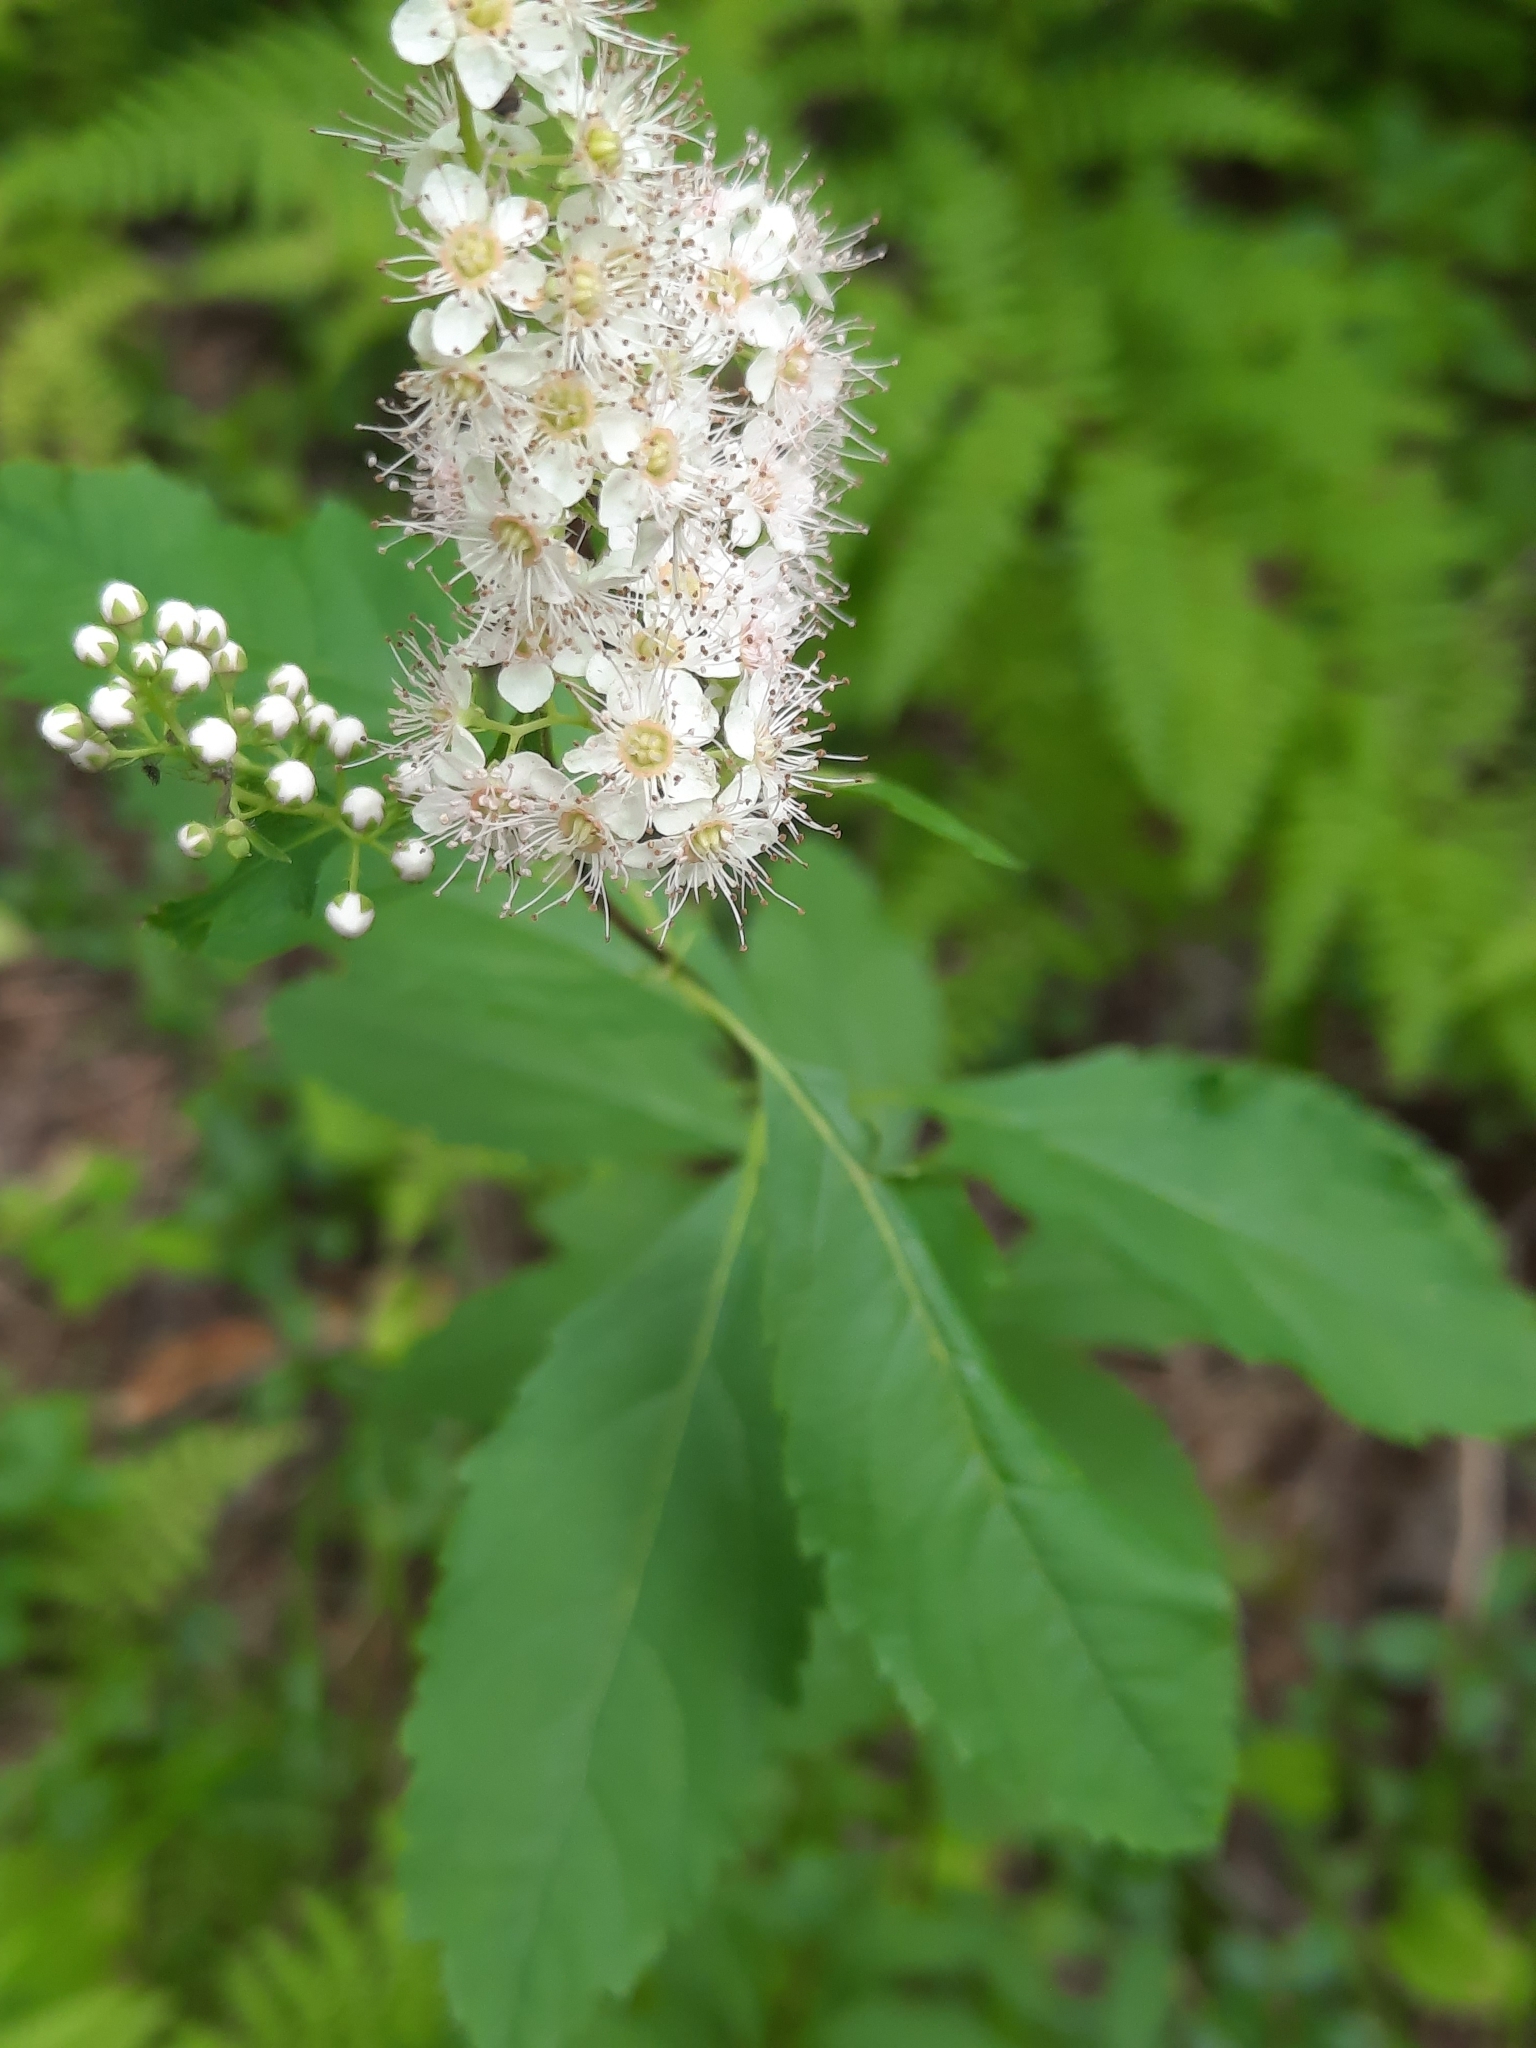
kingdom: Plantae
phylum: Tracheophyta
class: Magnoliopsida
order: Rosales
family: Rosaceae
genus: Spiraea
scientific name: Spiraea alba
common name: Pale bridewort
